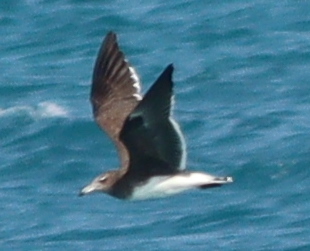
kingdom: Animalia
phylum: Chordata
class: Aves
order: Charadriiformes
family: Laridae
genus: Ichthyaetus
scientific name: Ichthyaetus hemprichii
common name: Sooty gull
